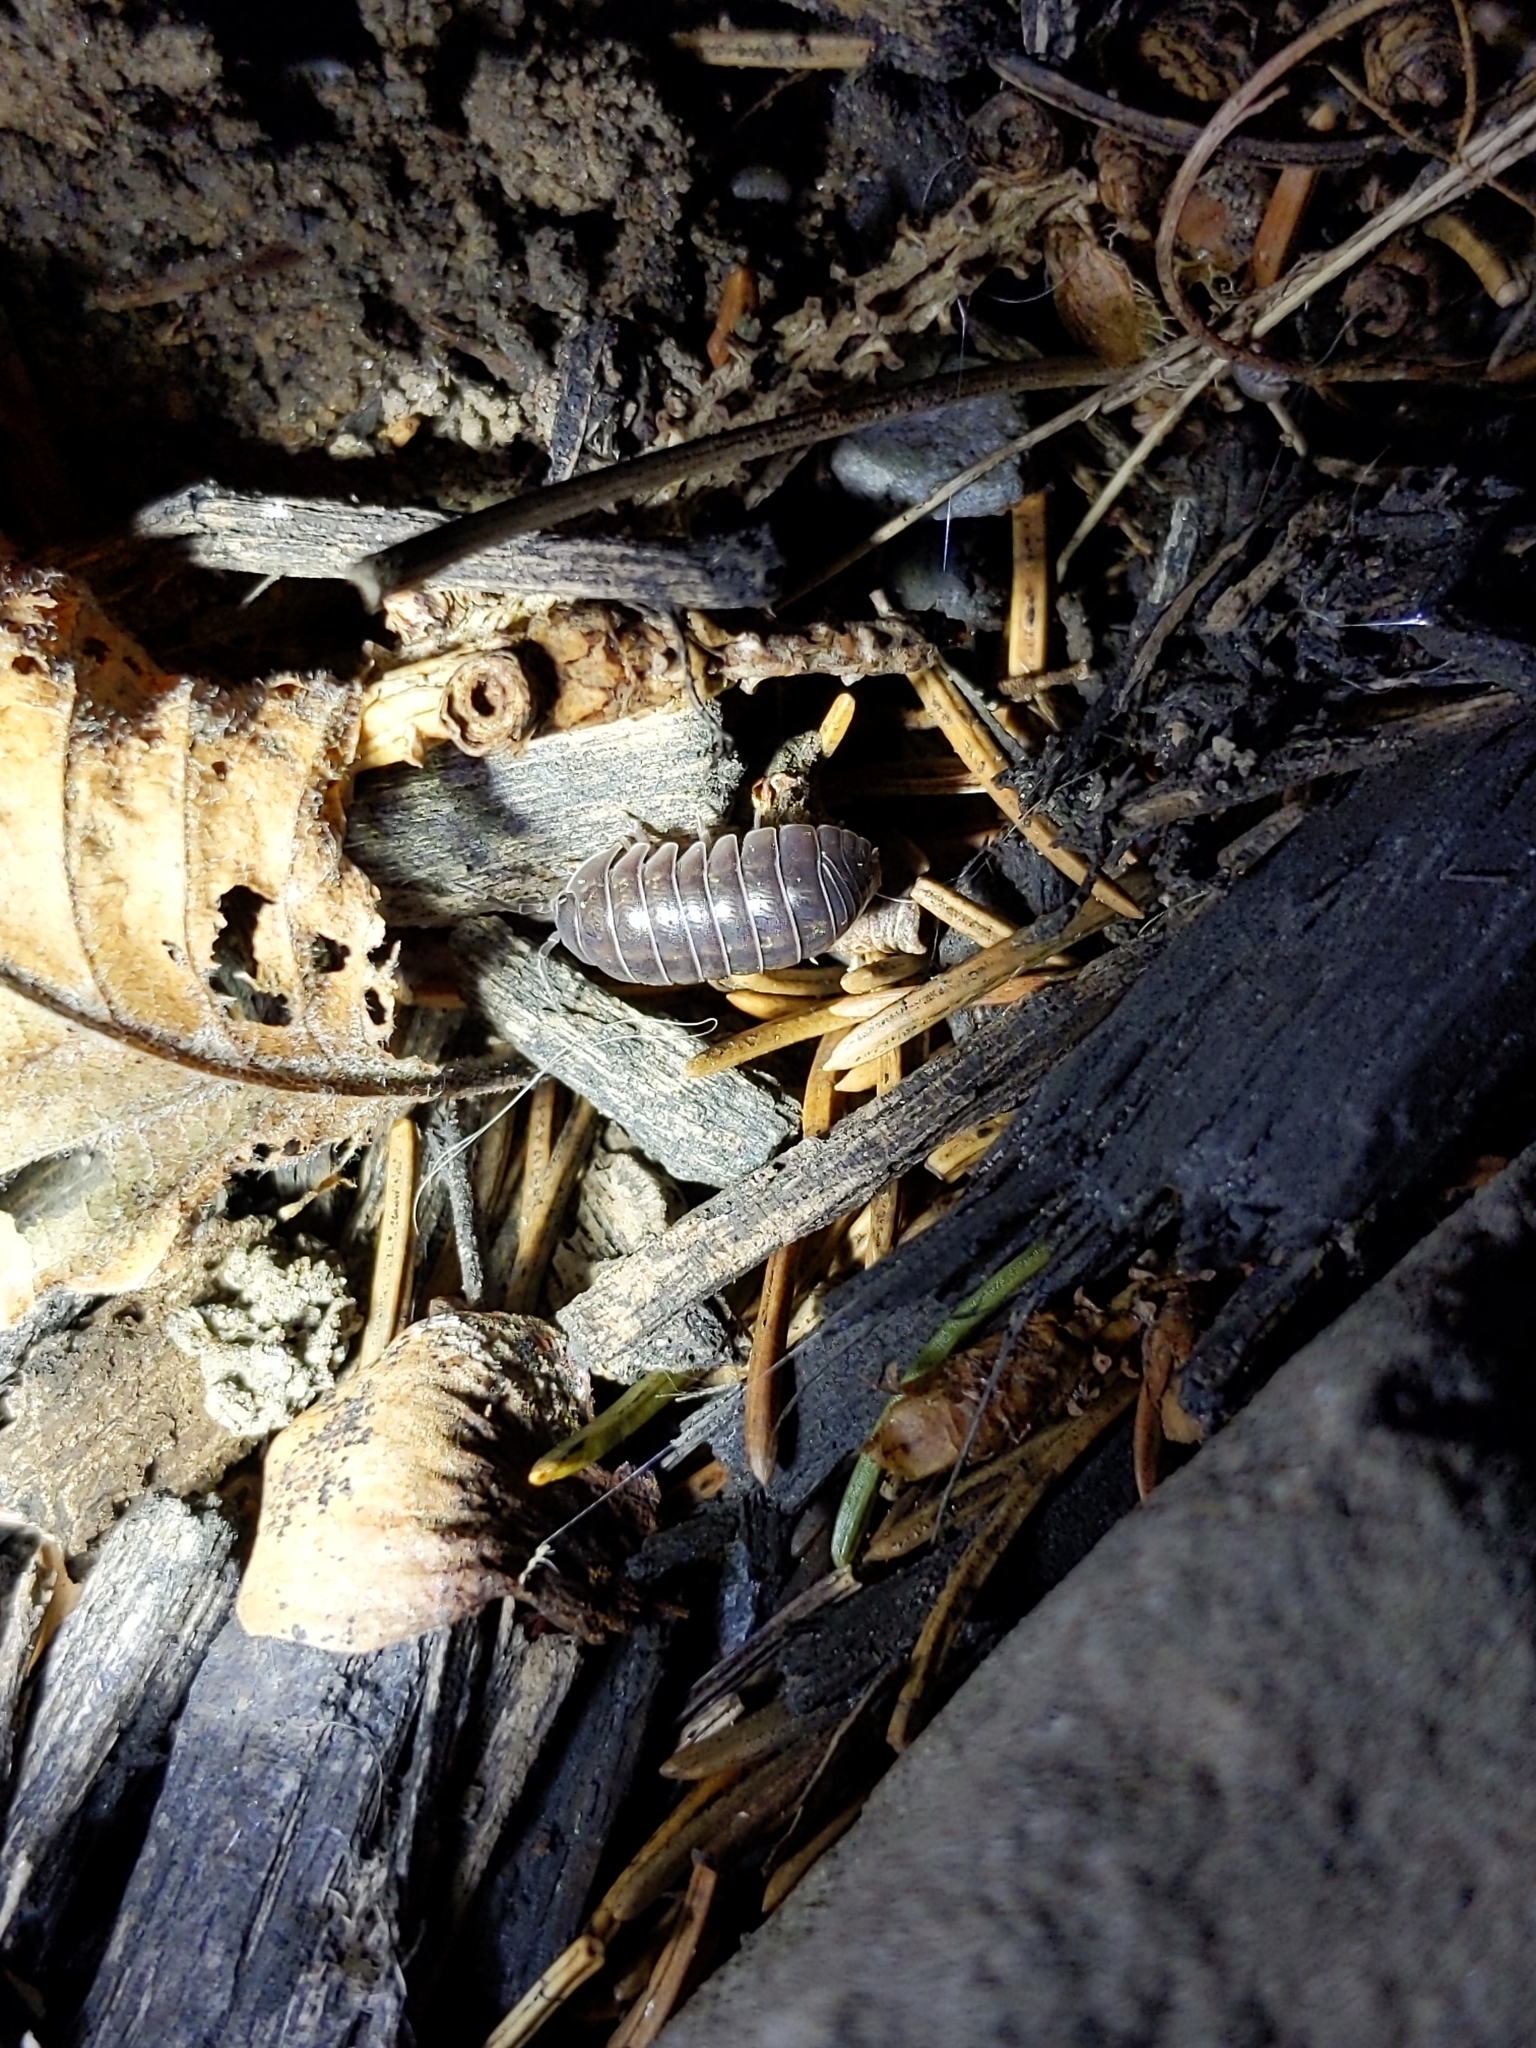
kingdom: Animalia
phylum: Arthropoda
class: Malacostraca
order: Isopoda
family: Armadillidiidae
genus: Armadillidium
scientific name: Armadillidium vulgare
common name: Common pill woodlouse
